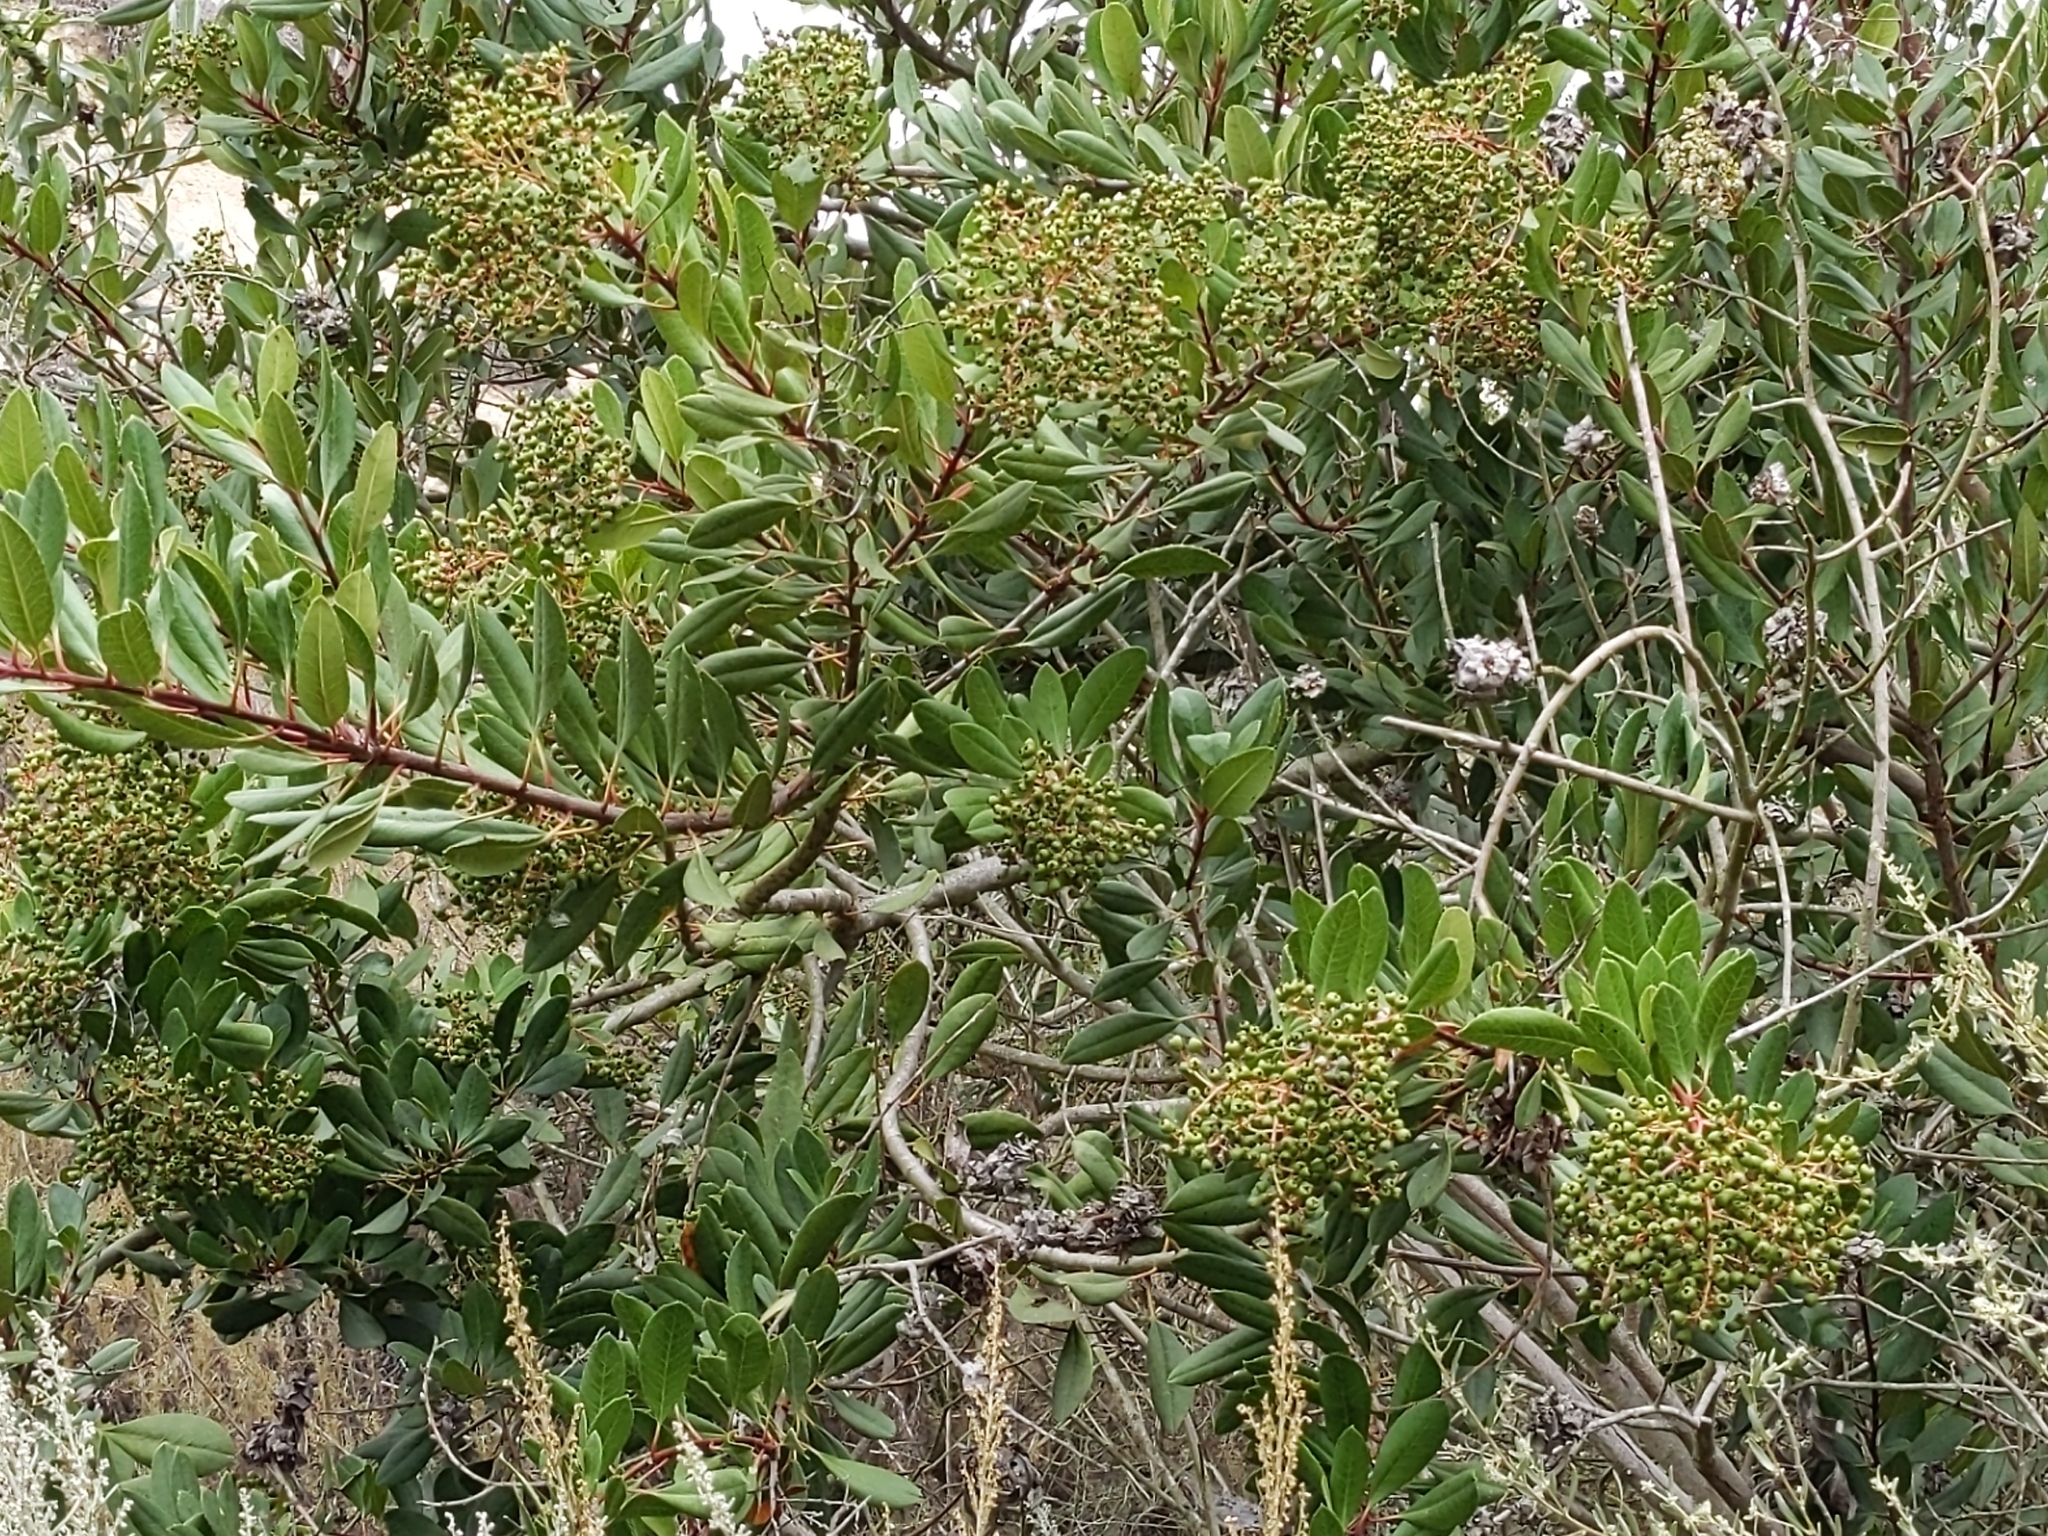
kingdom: Plantae
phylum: Tracheophyta
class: Magnoliopsida
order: Rosales
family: Rosaceae
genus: Heteromeles
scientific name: Heteromeles arbutifolia
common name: California-holly
